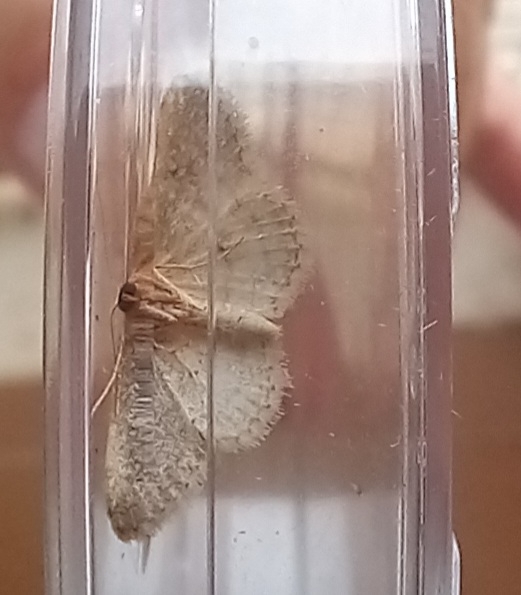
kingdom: Animalia
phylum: Arthropoda
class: Insecta
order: Lepidoptera
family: Geometridae
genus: Idaea
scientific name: Idaea eugeniata
